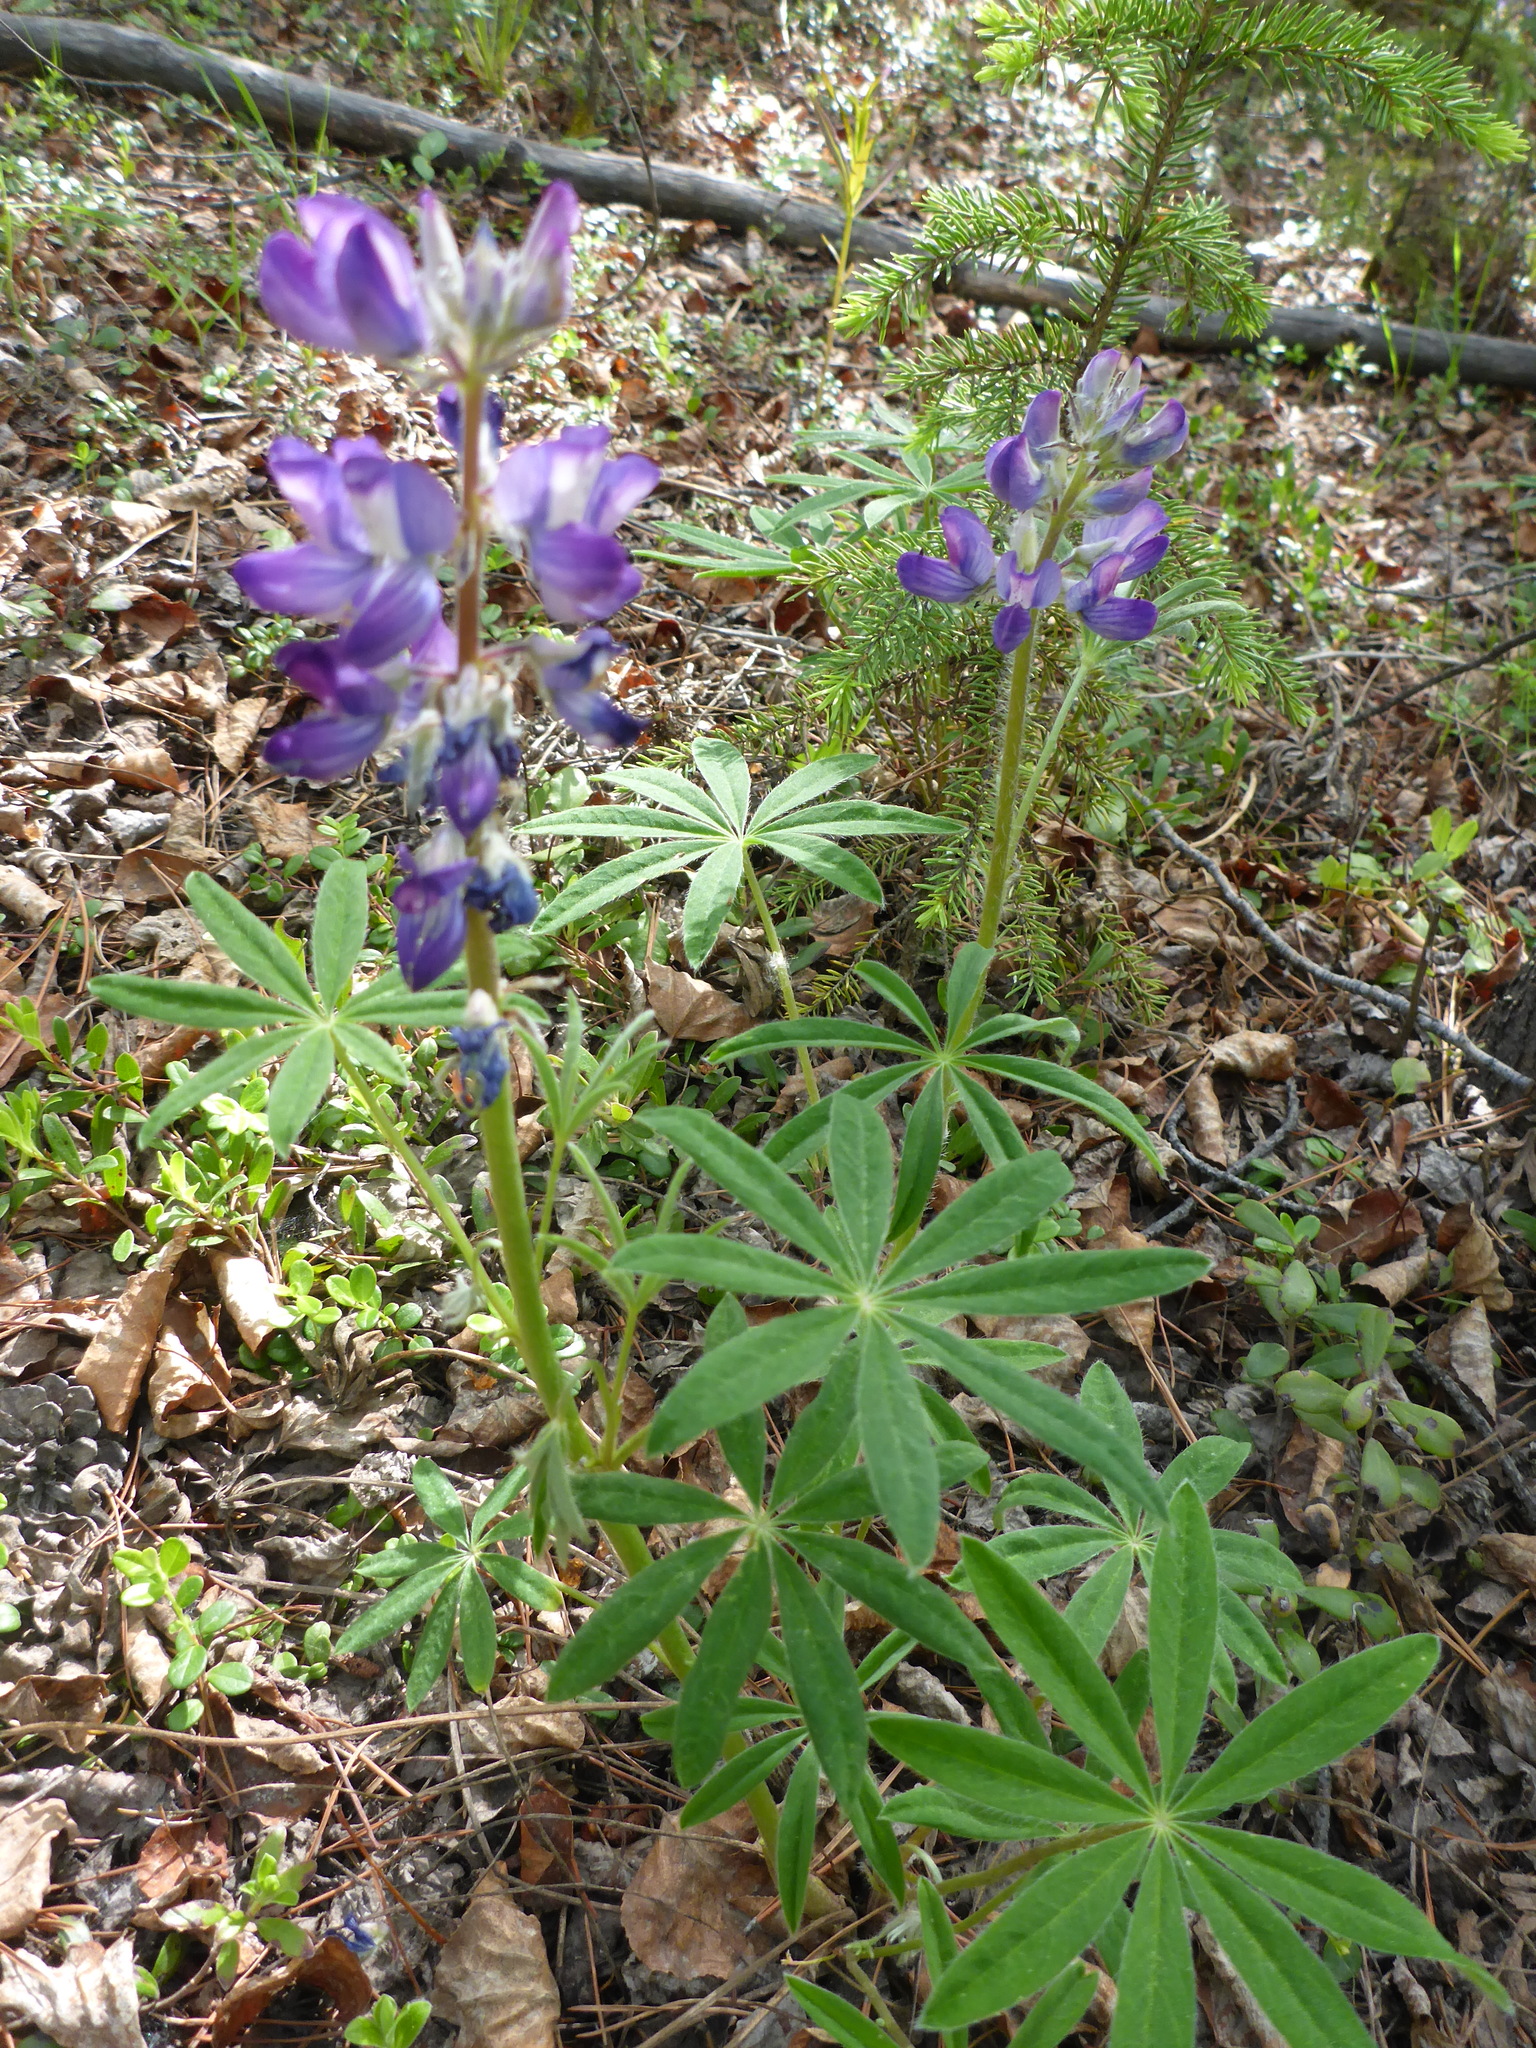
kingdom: Plantae
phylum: Tracheophyta
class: Magnoliopsida
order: Fabales
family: Fabaceae
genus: Lupinus
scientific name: Lupinus arcticus
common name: Arctic lupine
